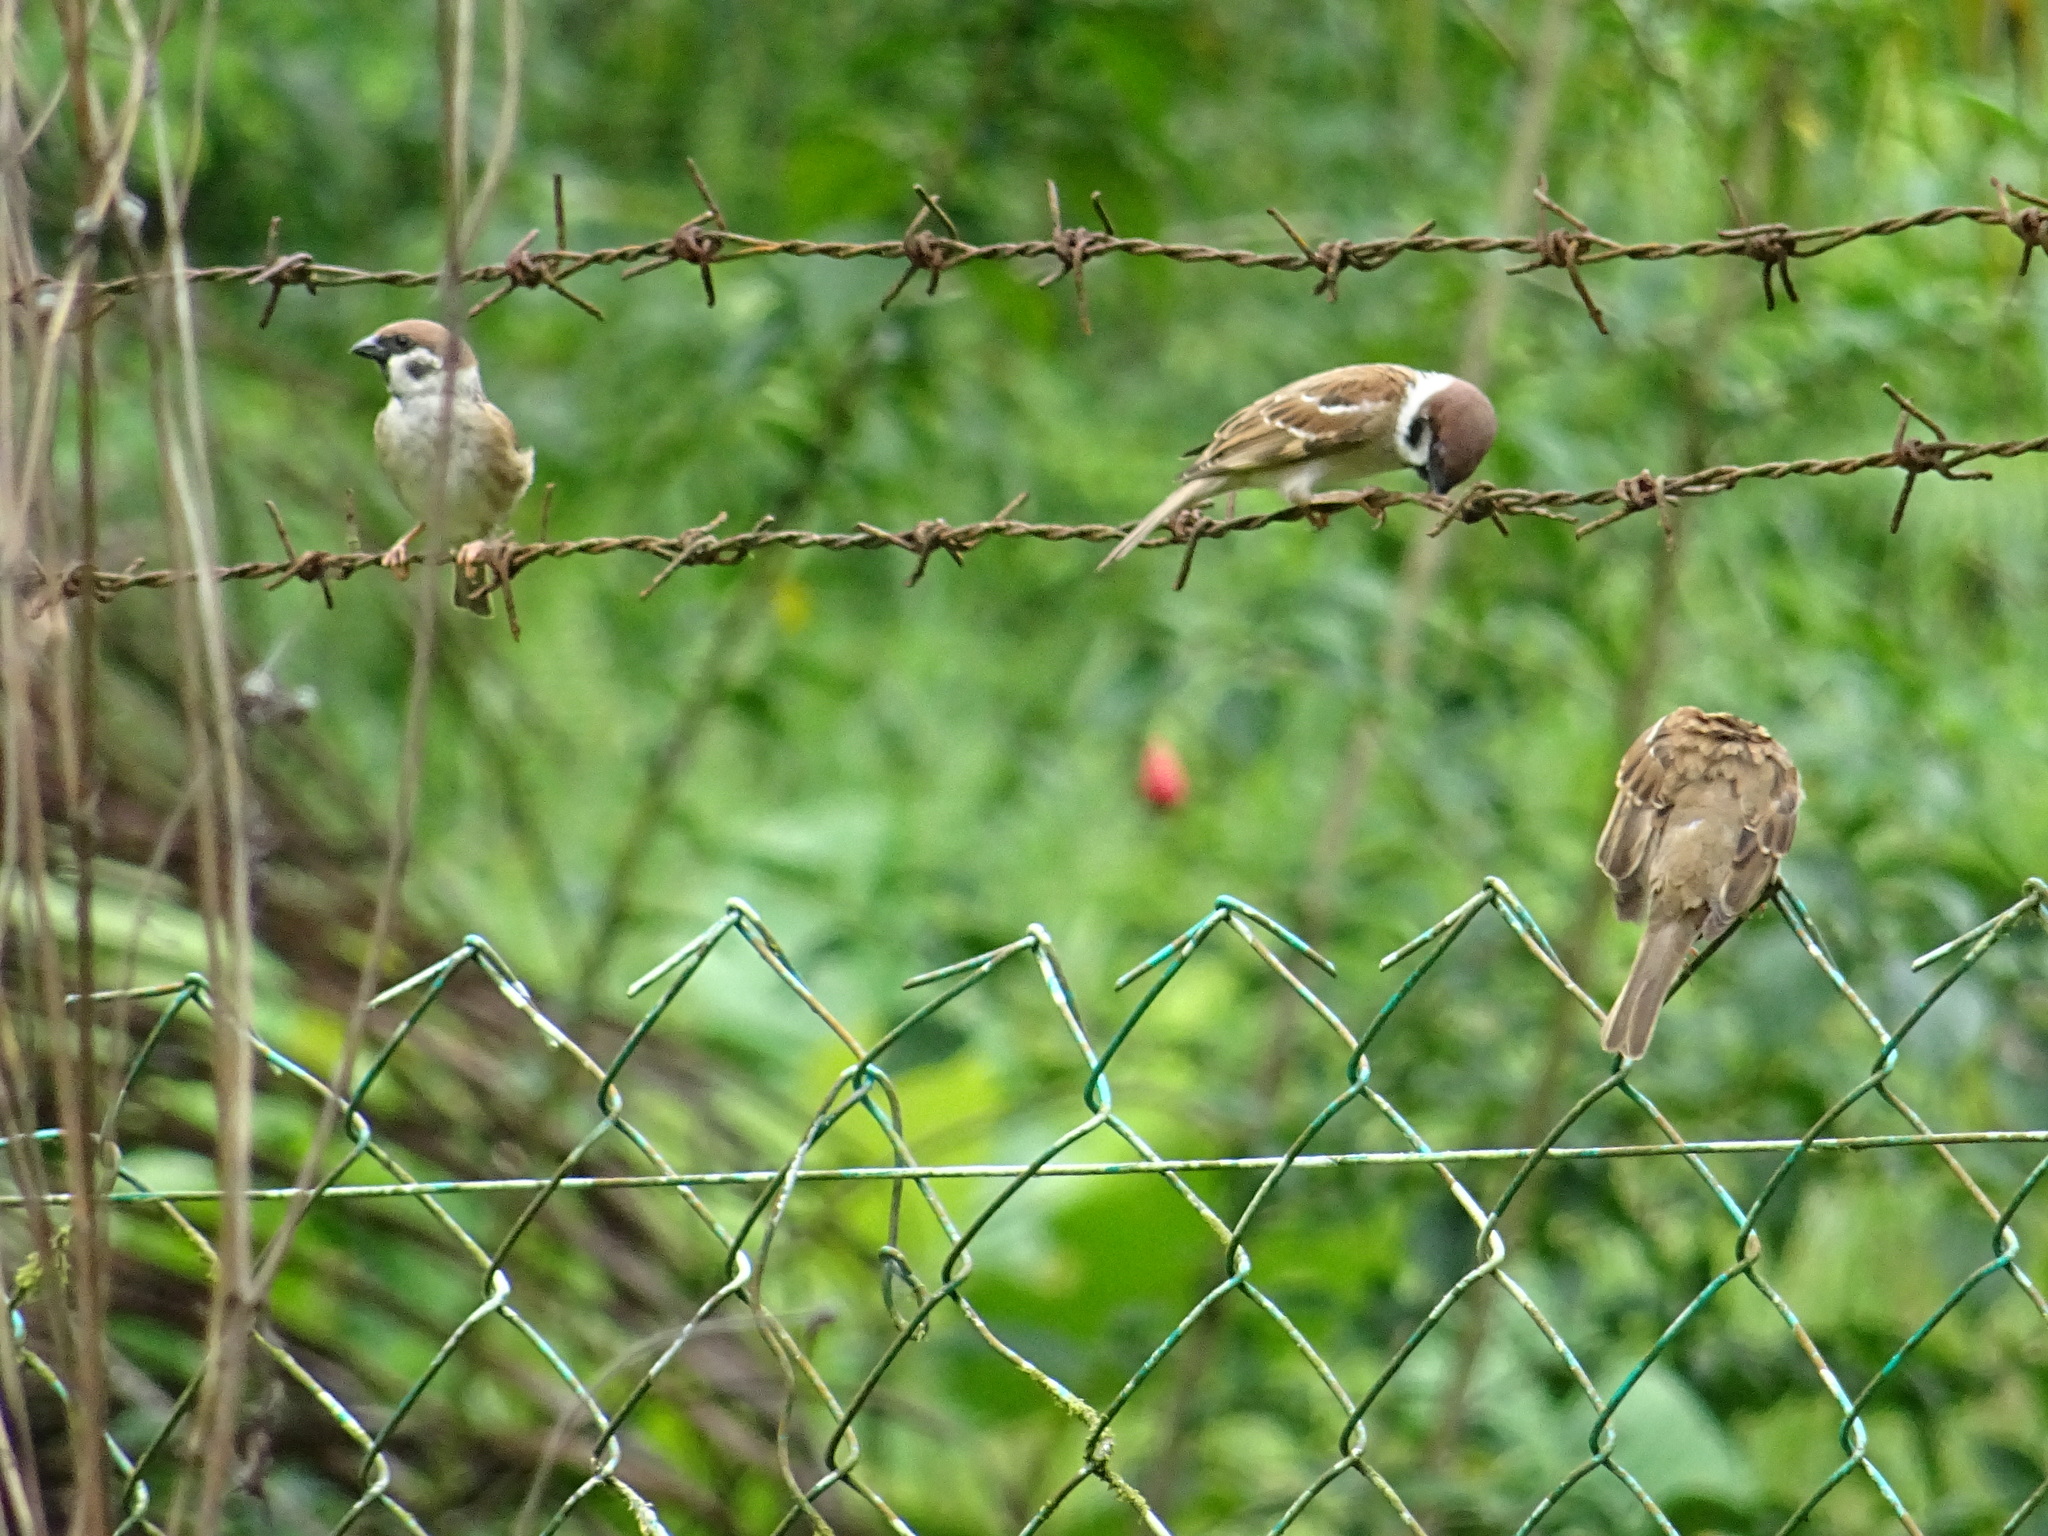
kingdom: Animalia
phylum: Chordata
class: Aves
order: Passeriformes
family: Passeridae
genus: Passer
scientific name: Passer montanus
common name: Eurasian tree sparrow
